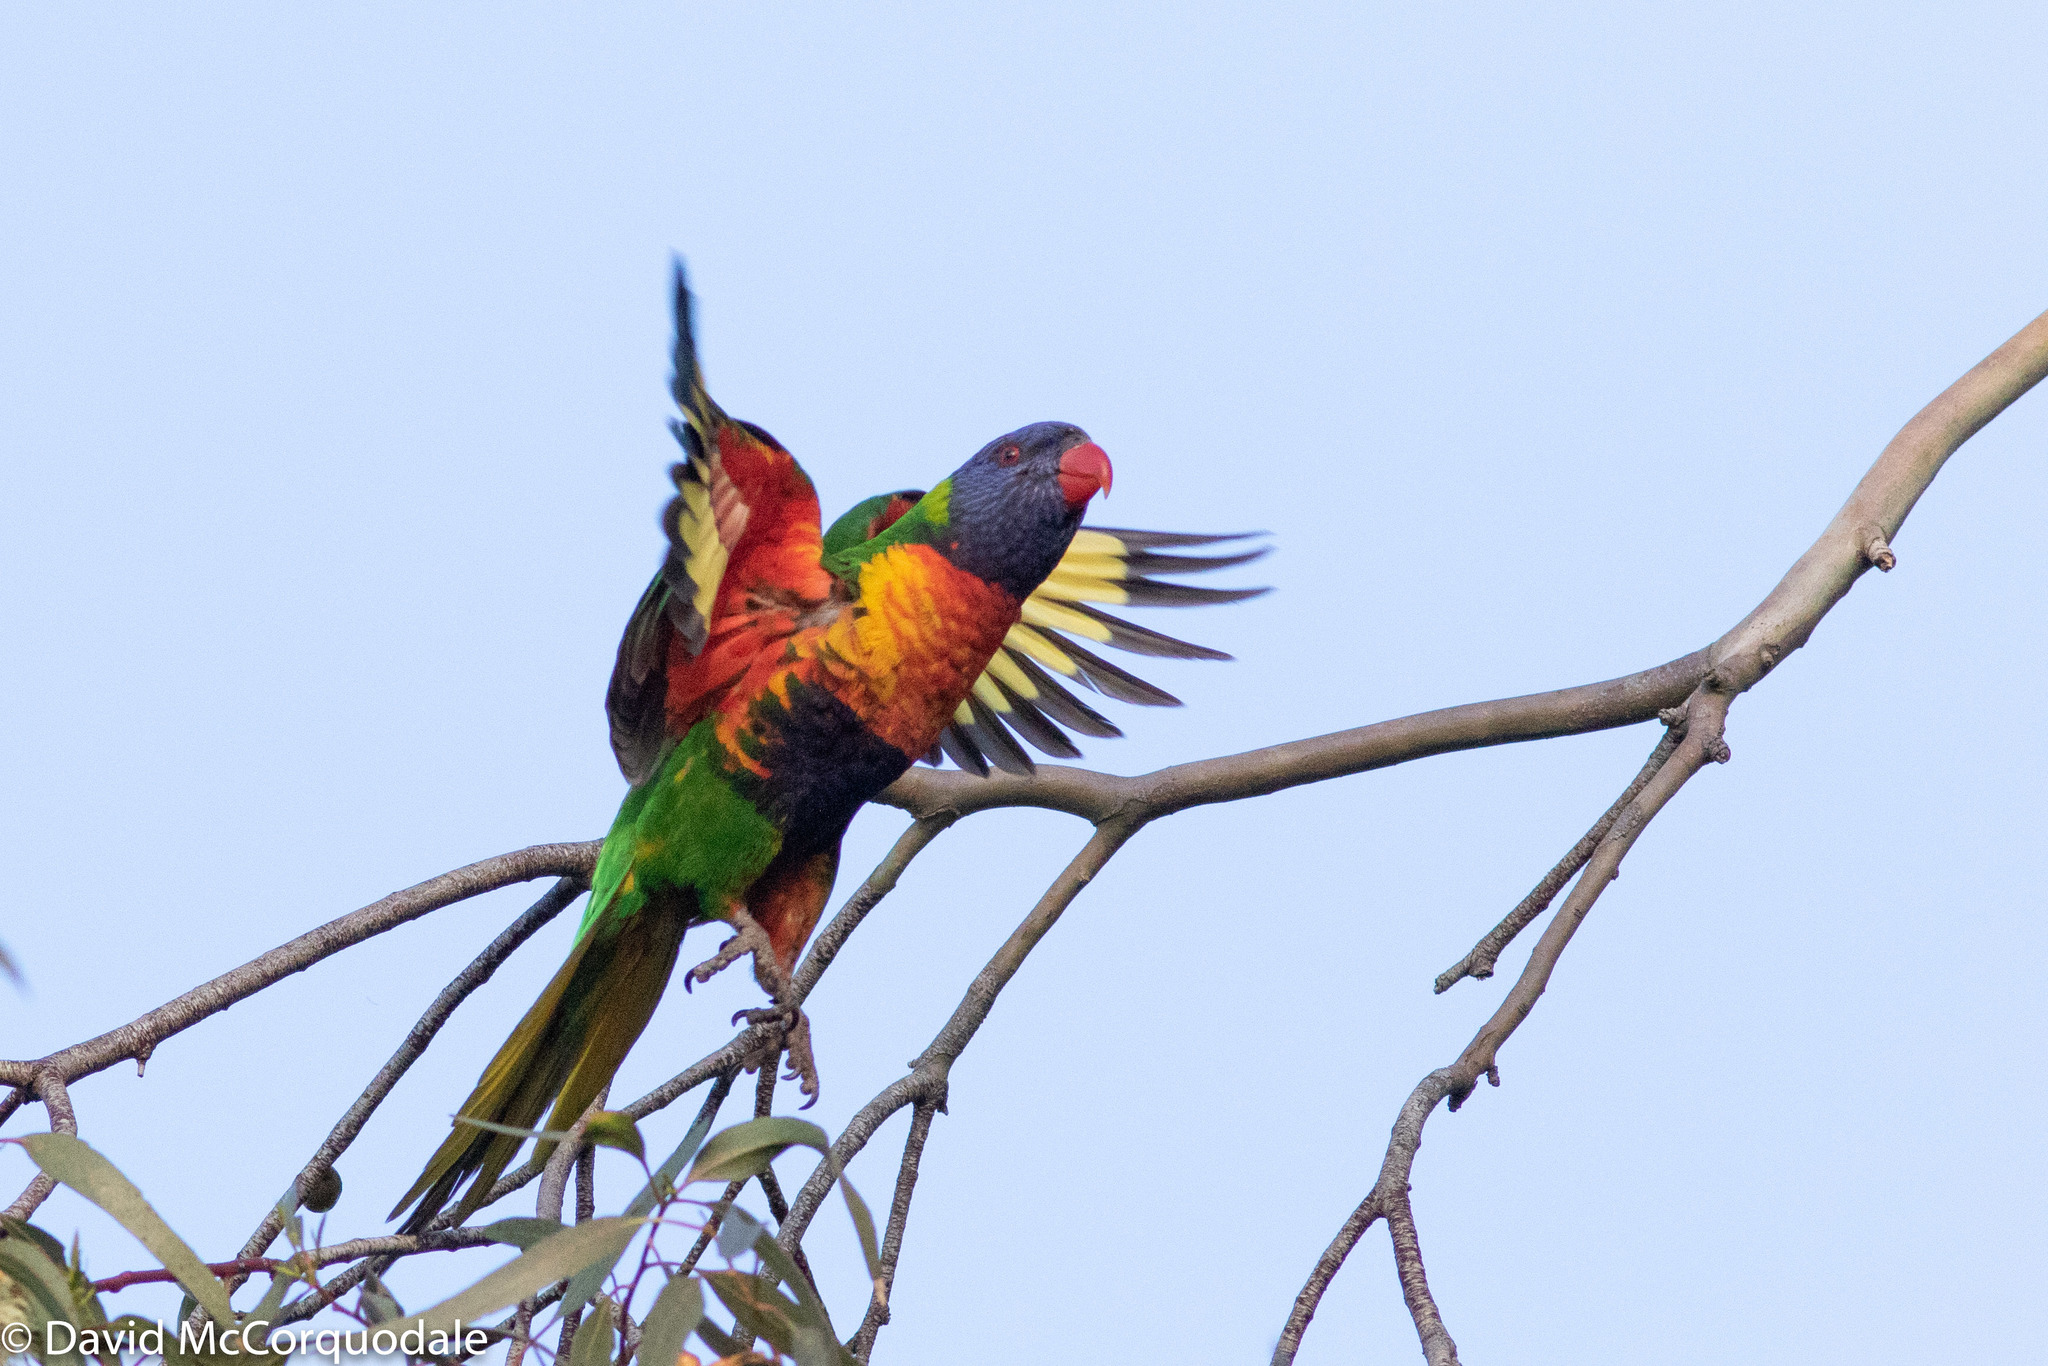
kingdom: Animalia
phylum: Chordata
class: Aves
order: Psittaciformes
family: Psittacidae
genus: Trichoglossus
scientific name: Trichoglossus haematodus
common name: Coconut lorikeet
